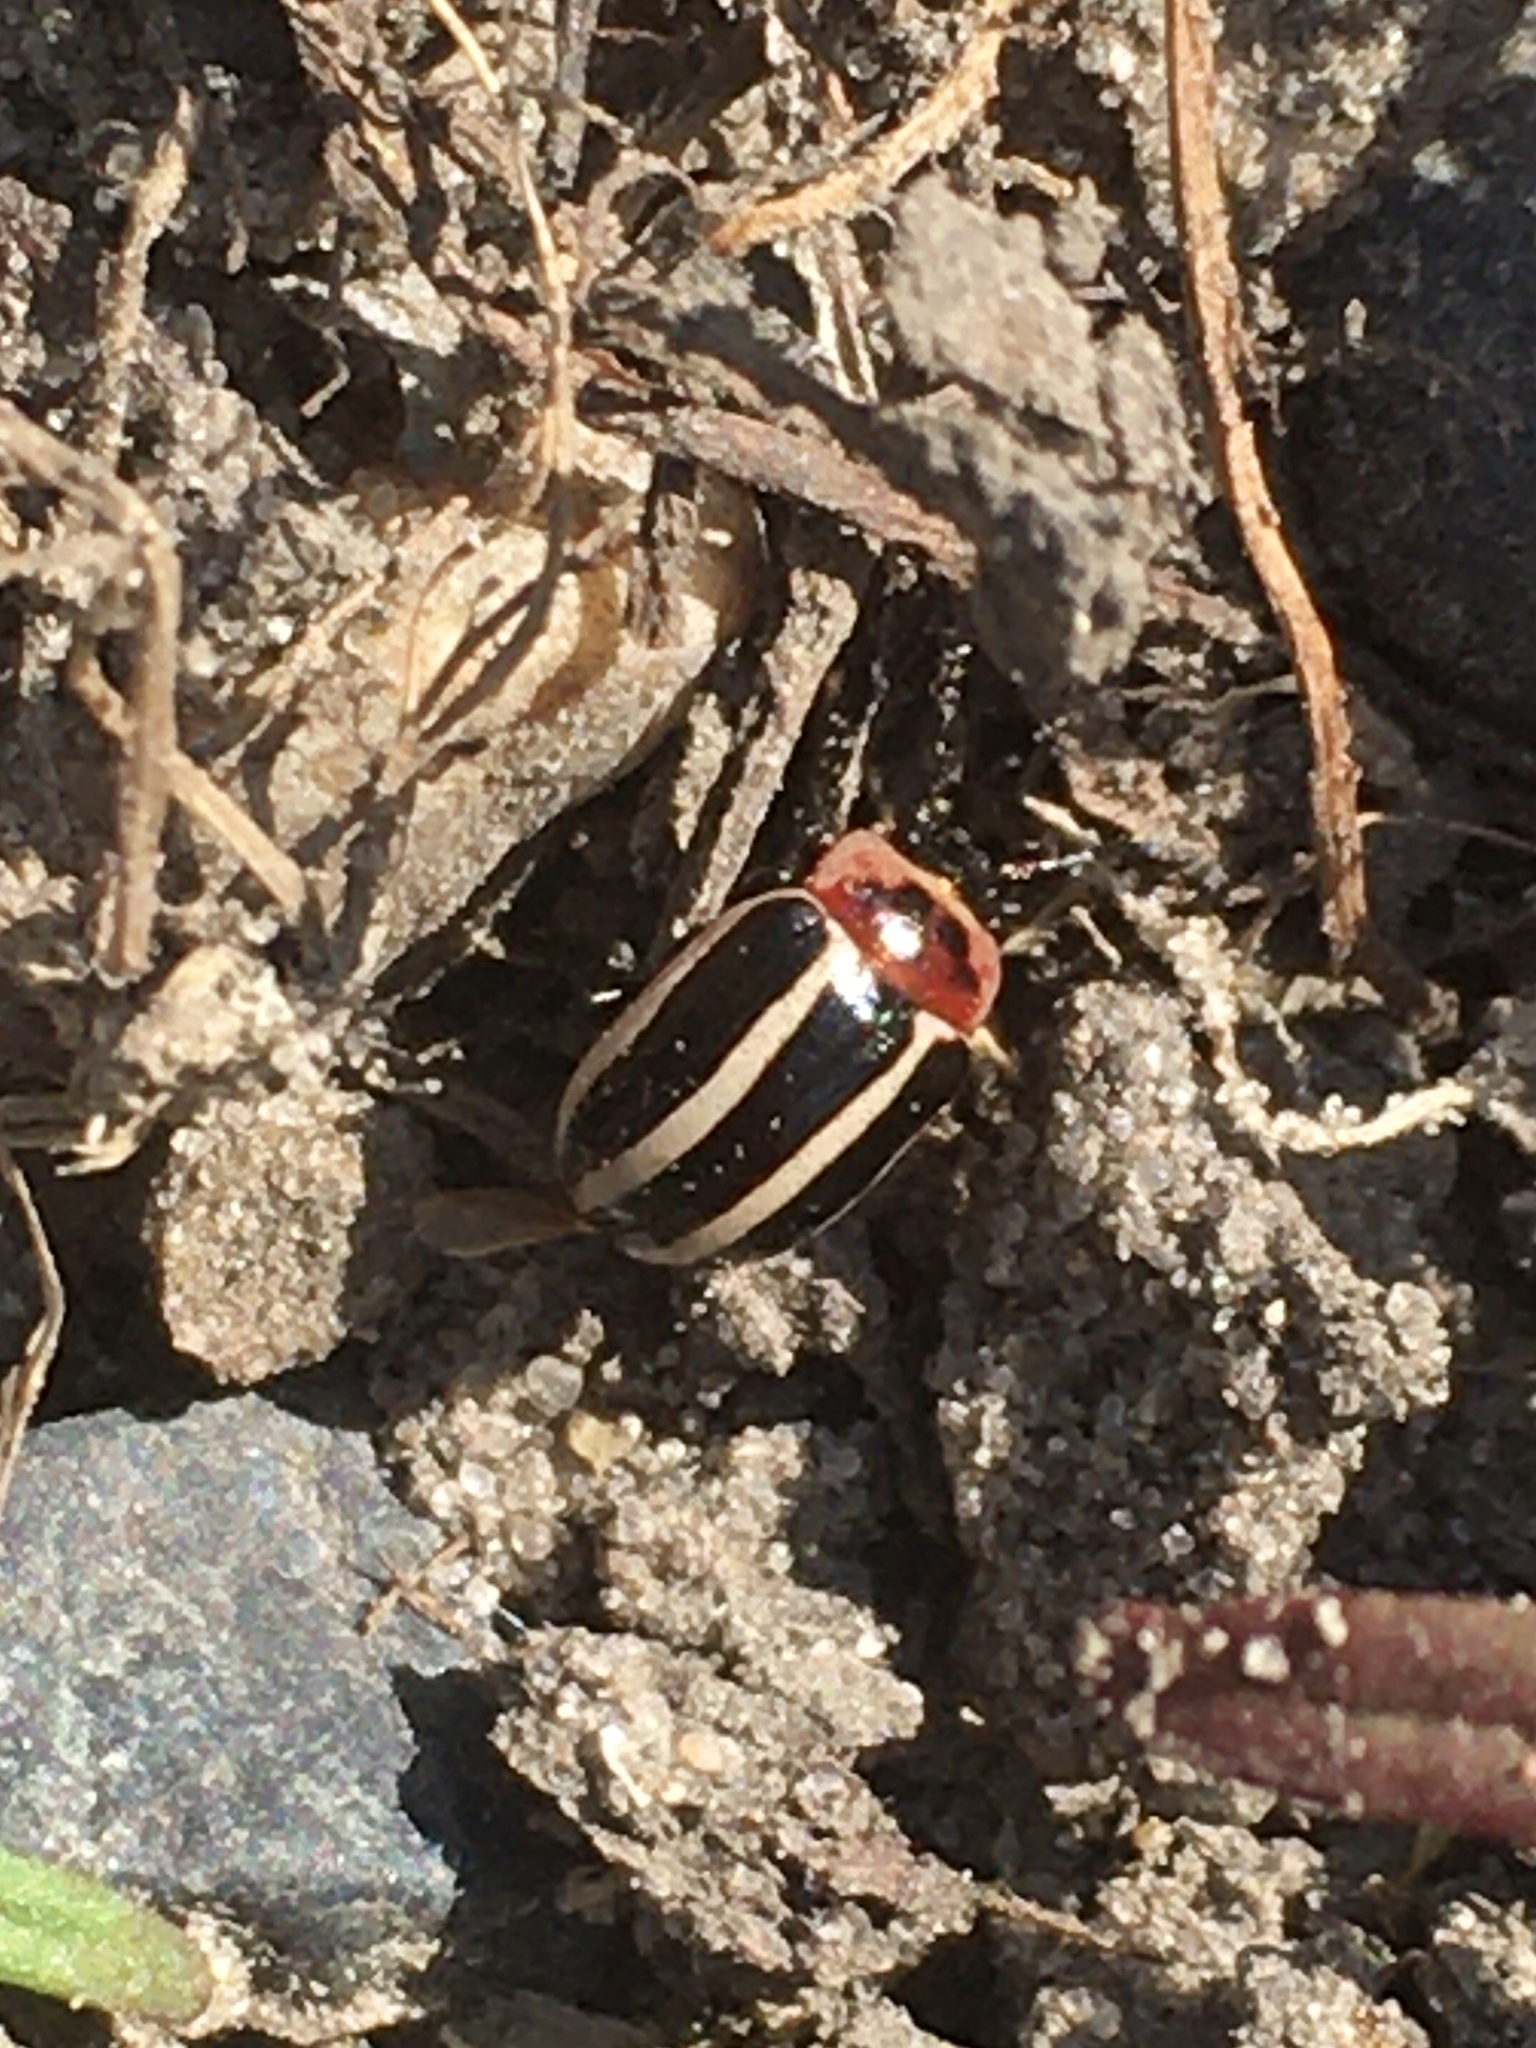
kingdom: Animalia
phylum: Arthropoda
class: Insecta
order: Coleoptera
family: Chrysomelidae
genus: Calligrapha
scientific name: Calligrapha californica
